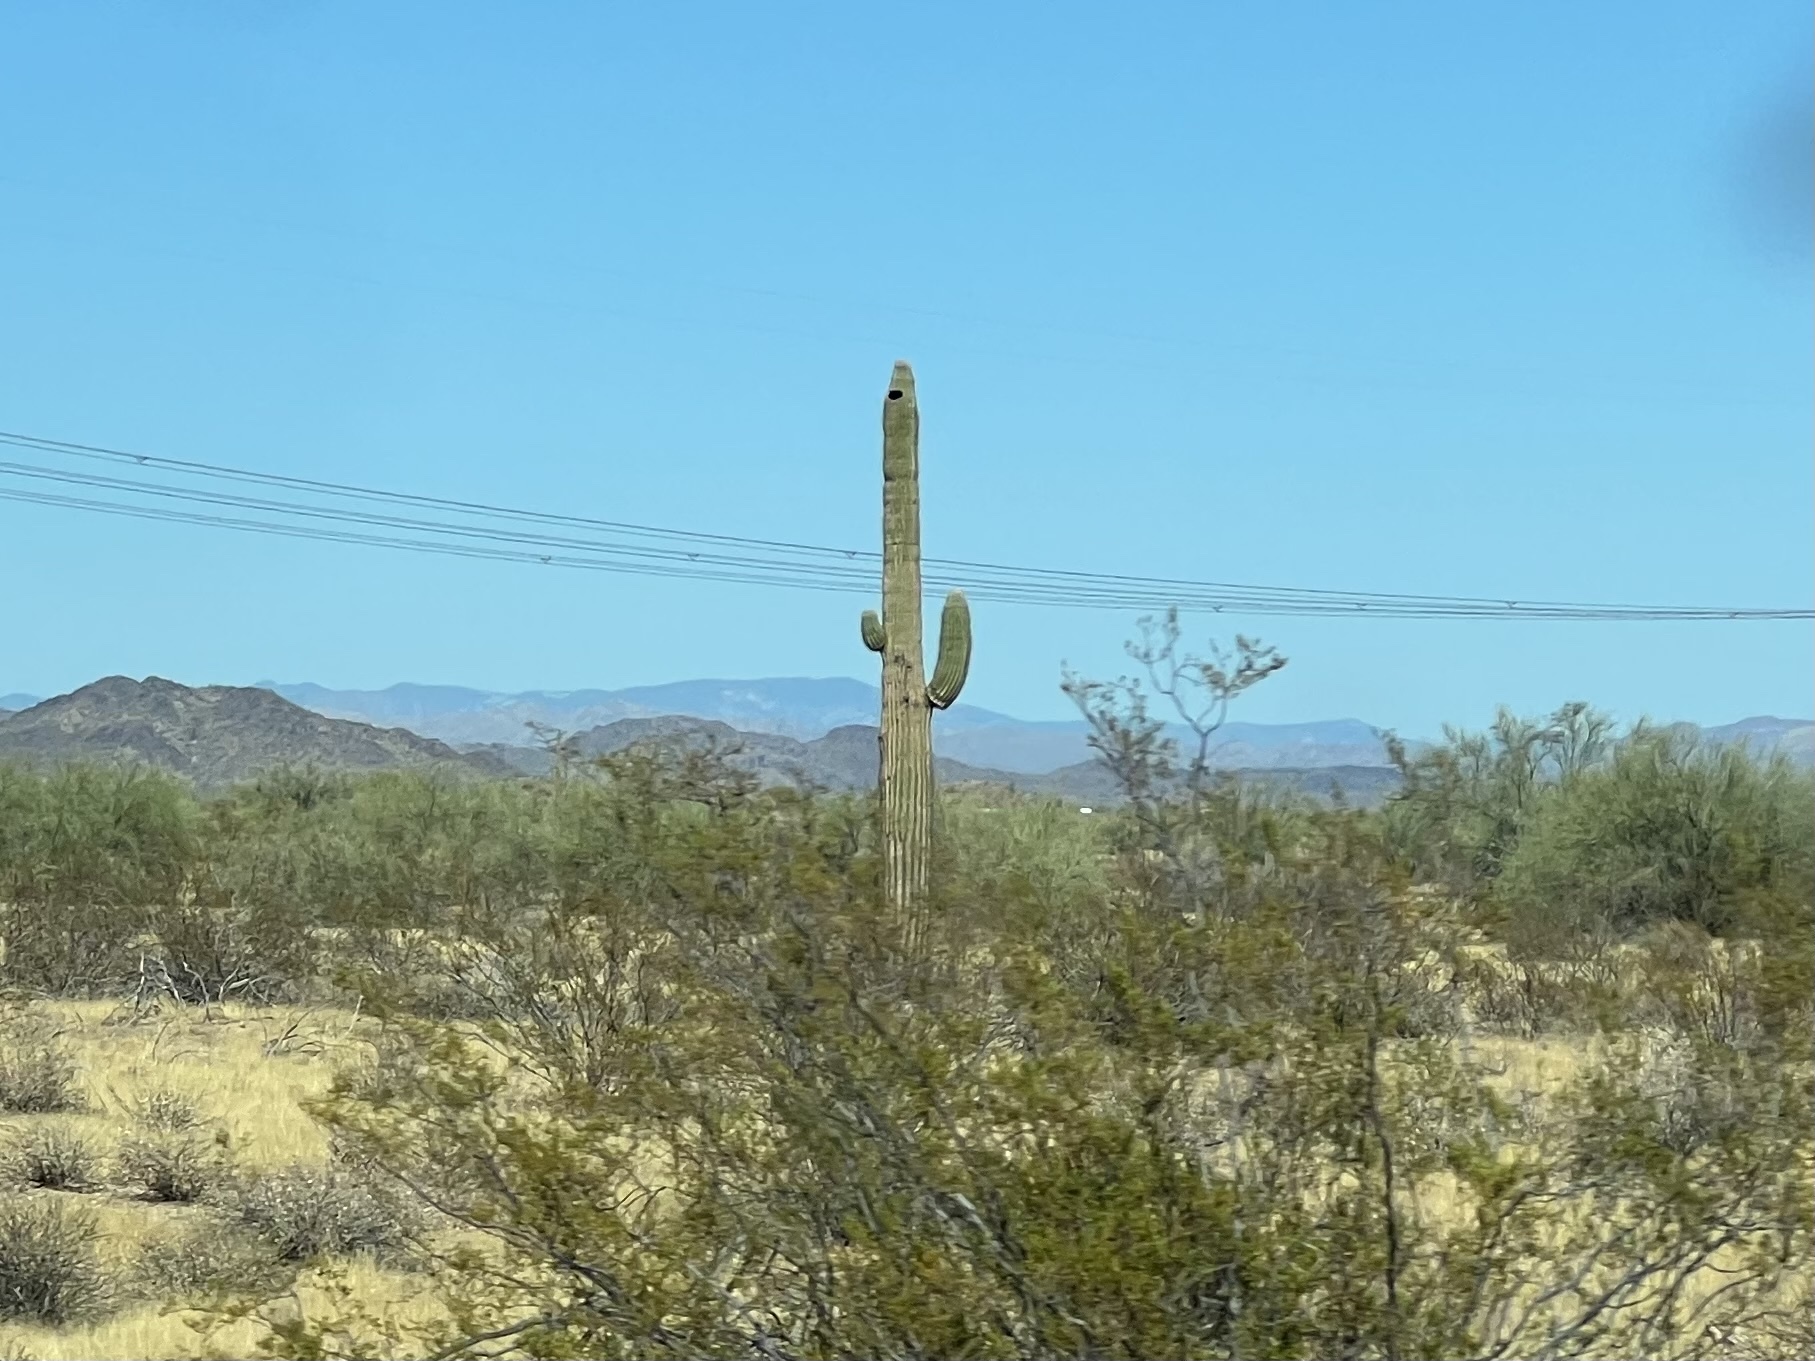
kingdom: Plantae
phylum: Tracheophyta
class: Magnoliopsida
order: Caryophyllales
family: Cactaceae
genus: Carnegiea
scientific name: Carnegiea gigantea
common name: Saguaro
